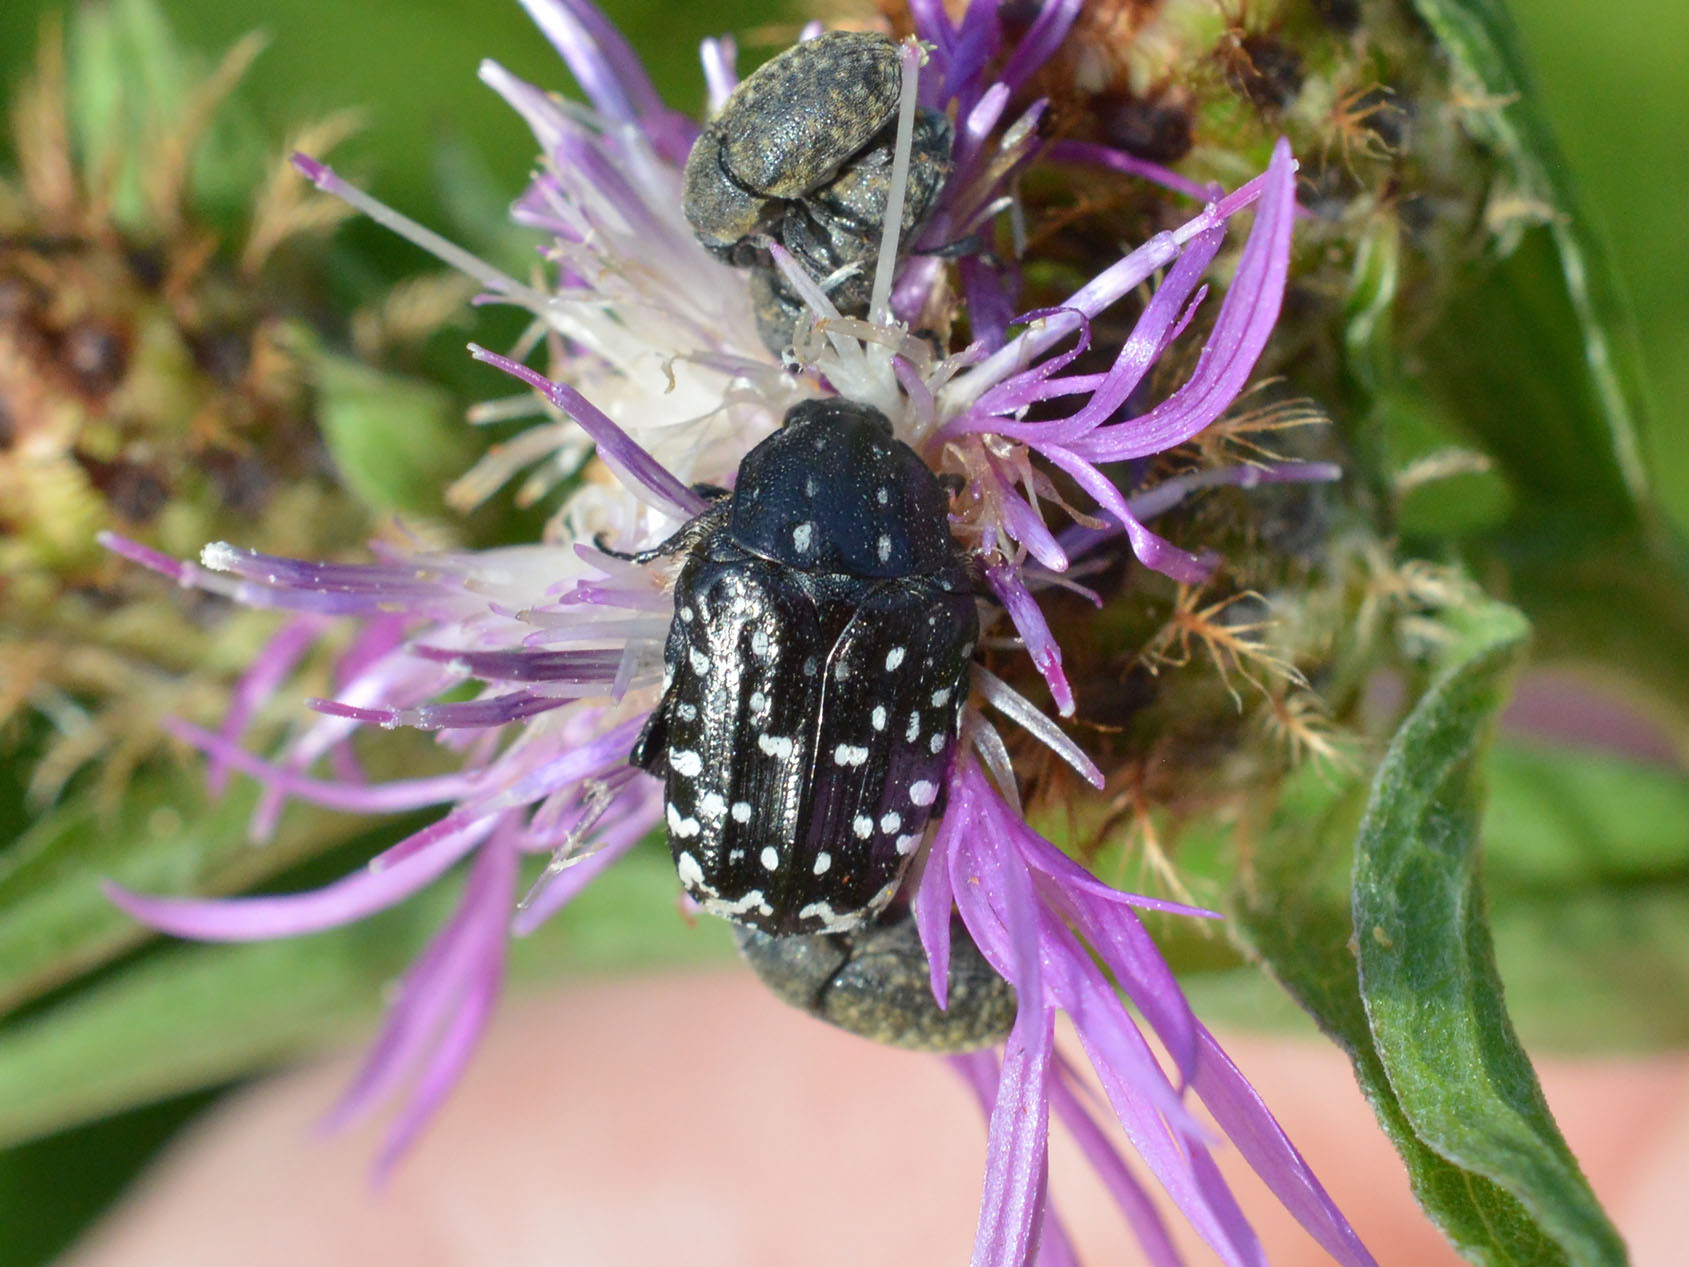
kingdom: Animalia
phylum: Arthropoda
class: Insecta
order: Coleoptera
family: Scarabaeidae
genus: Oxythyrea
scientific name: Oxythyrea funesta
